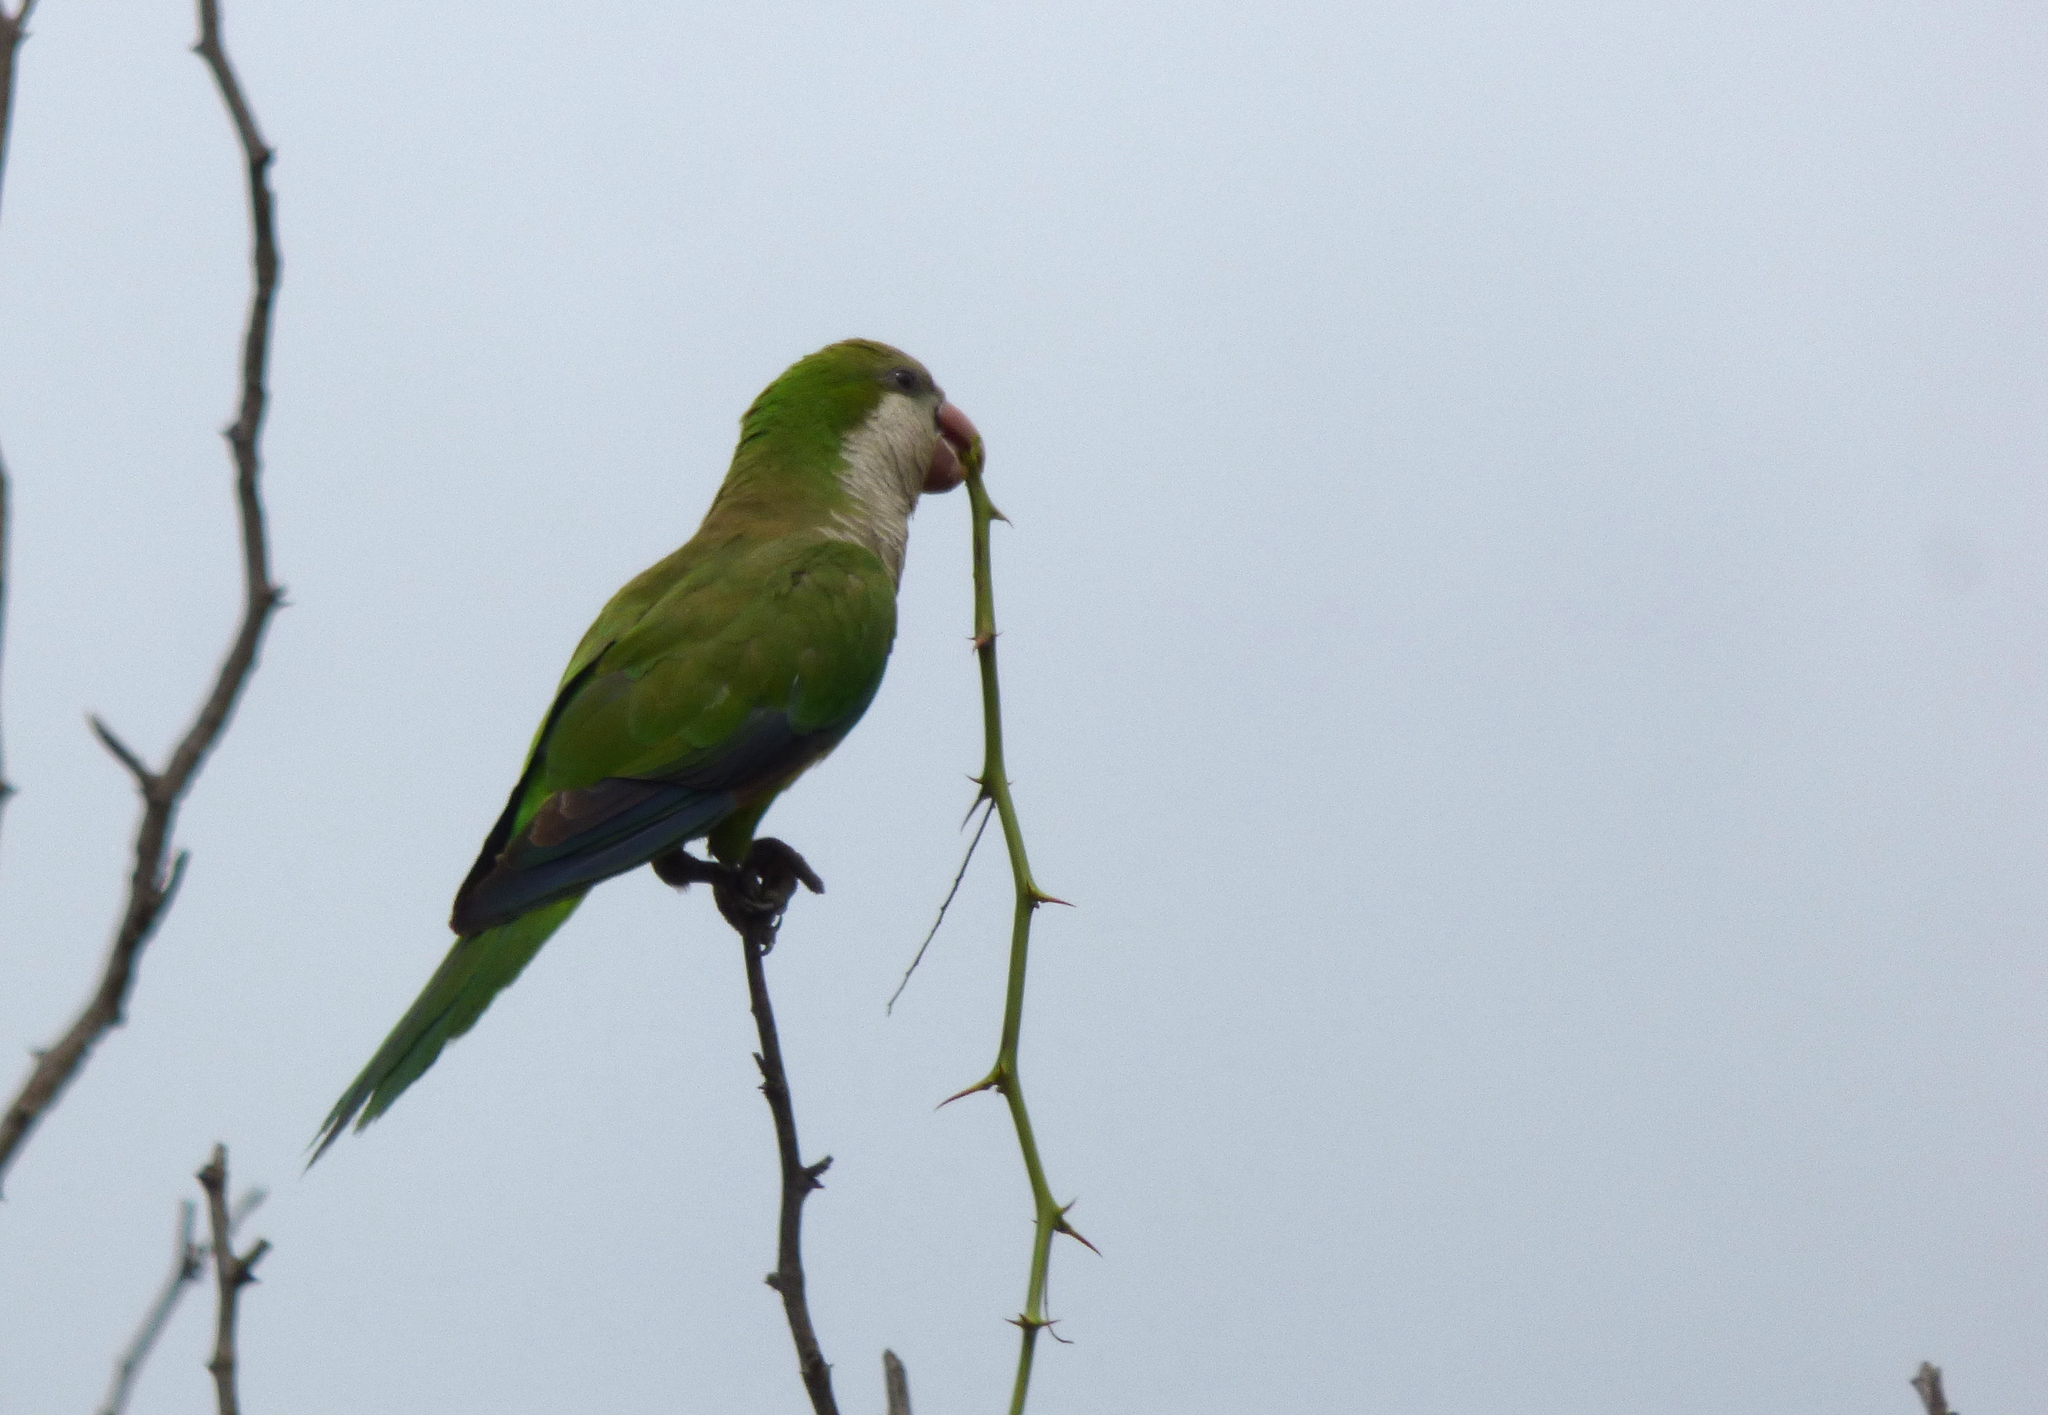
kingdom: Animalia
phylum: Chordata
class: Aves
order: Psittaciformes
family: Psittacidae
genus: Myiopsitta
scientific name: Myiopsitta monachus
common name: Monk parakeet
